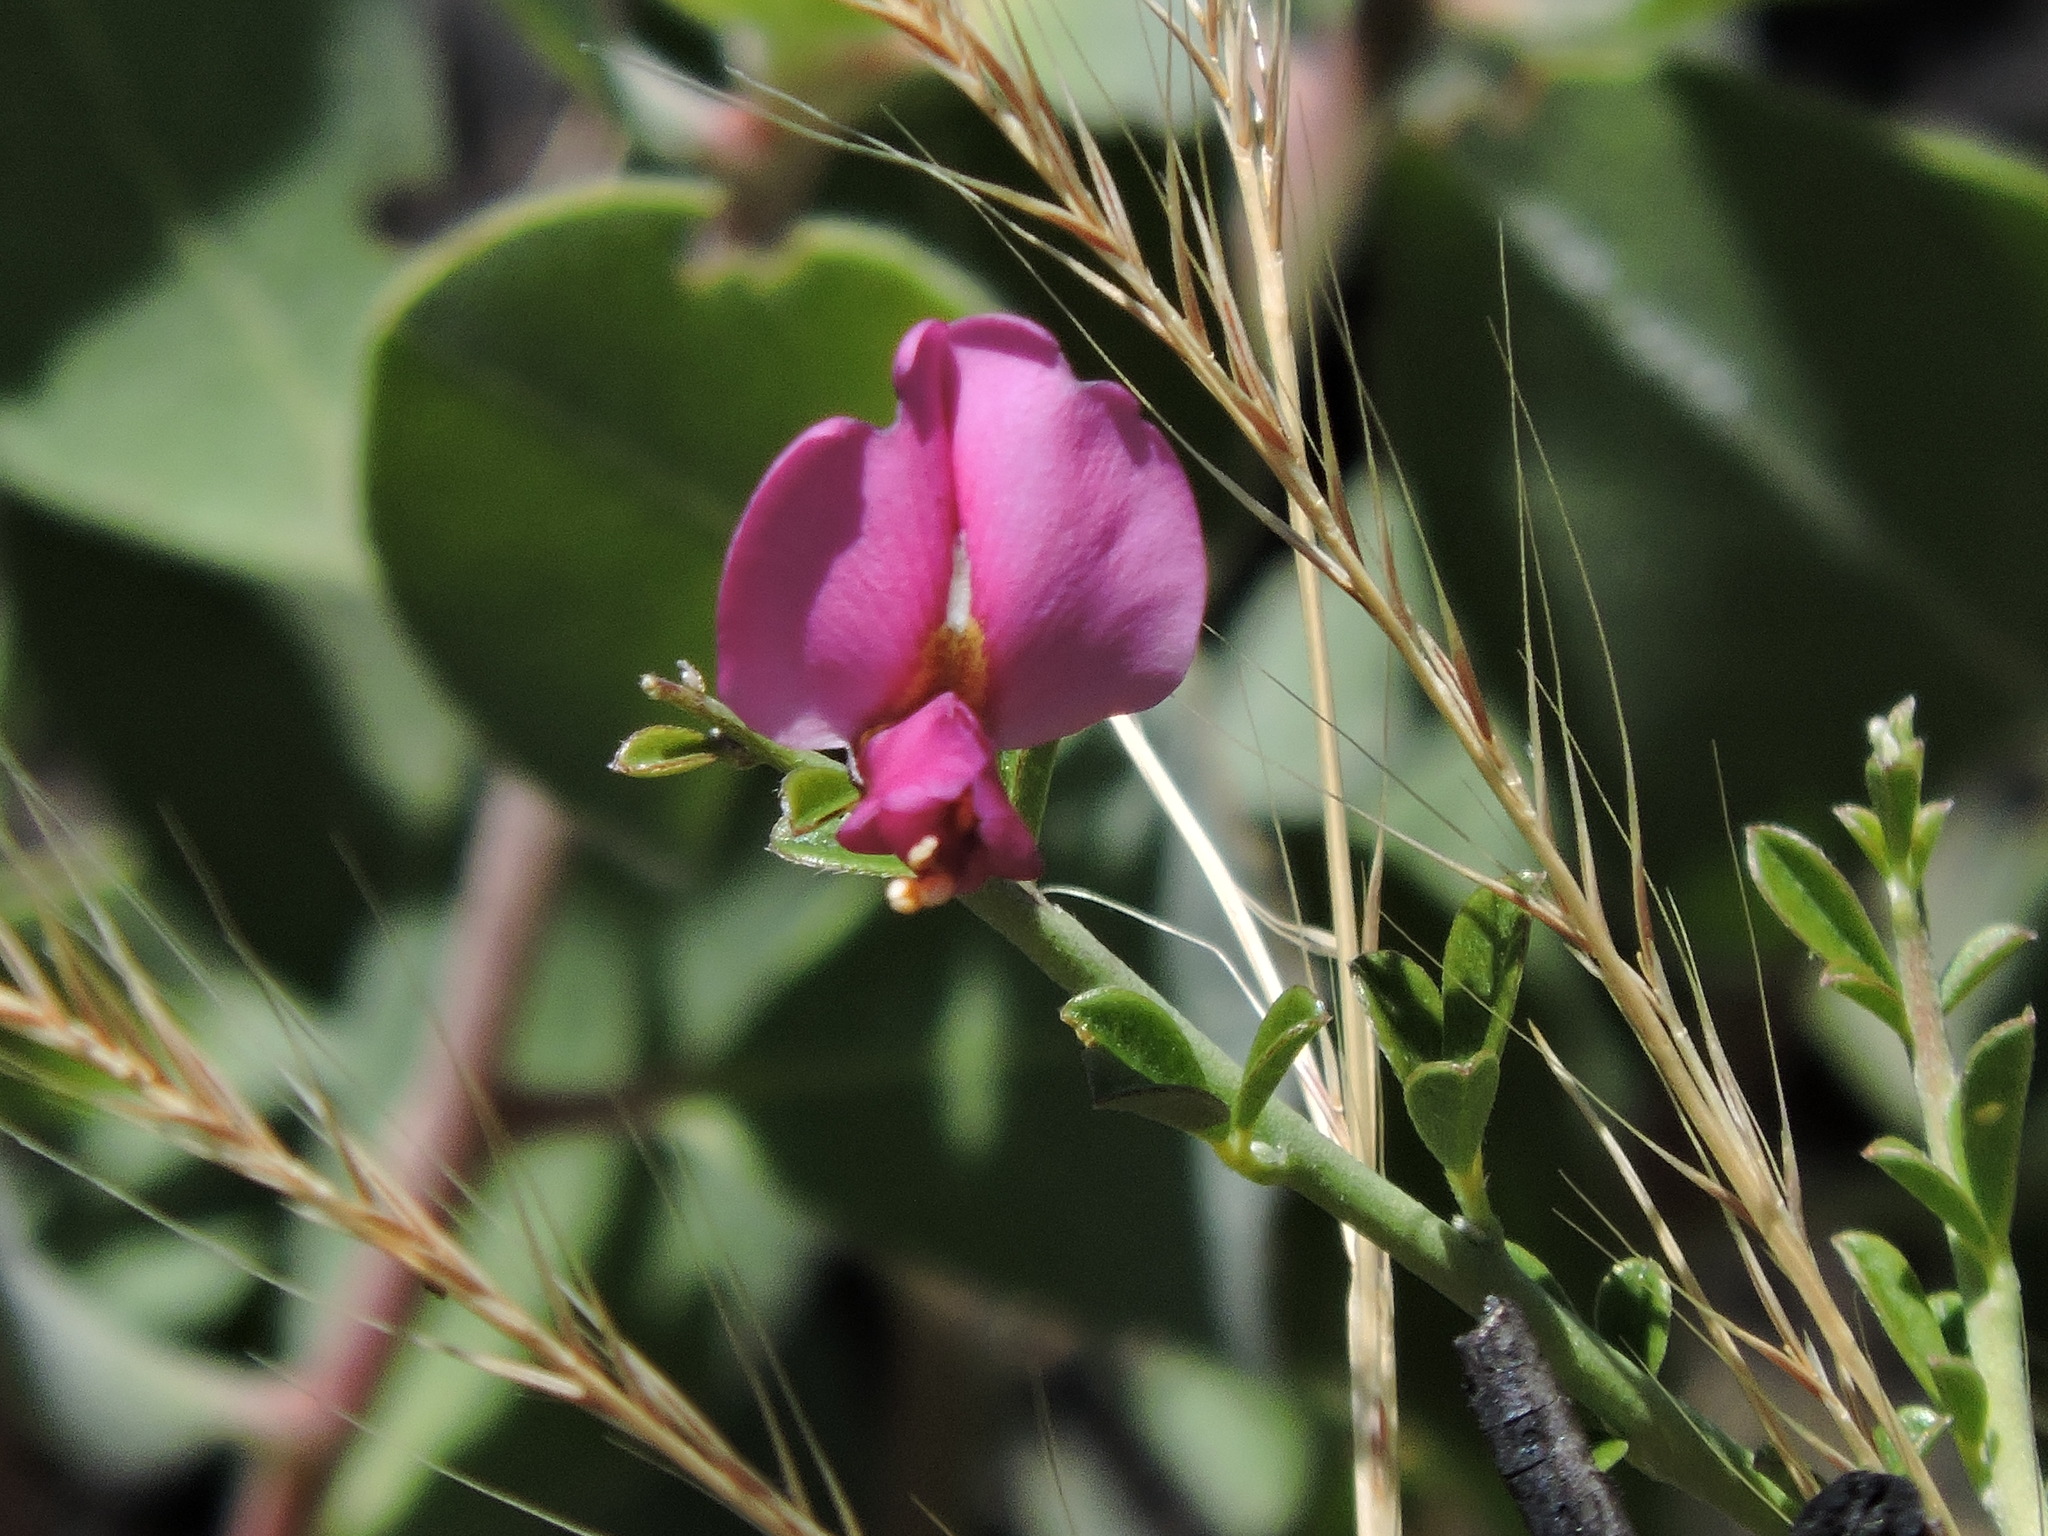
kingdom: Plantae
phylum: Tracheophyta
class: Magnoliopsida
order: Fabales
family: Fabaceae
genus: Pickeringia
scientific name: Pickeringia montana
